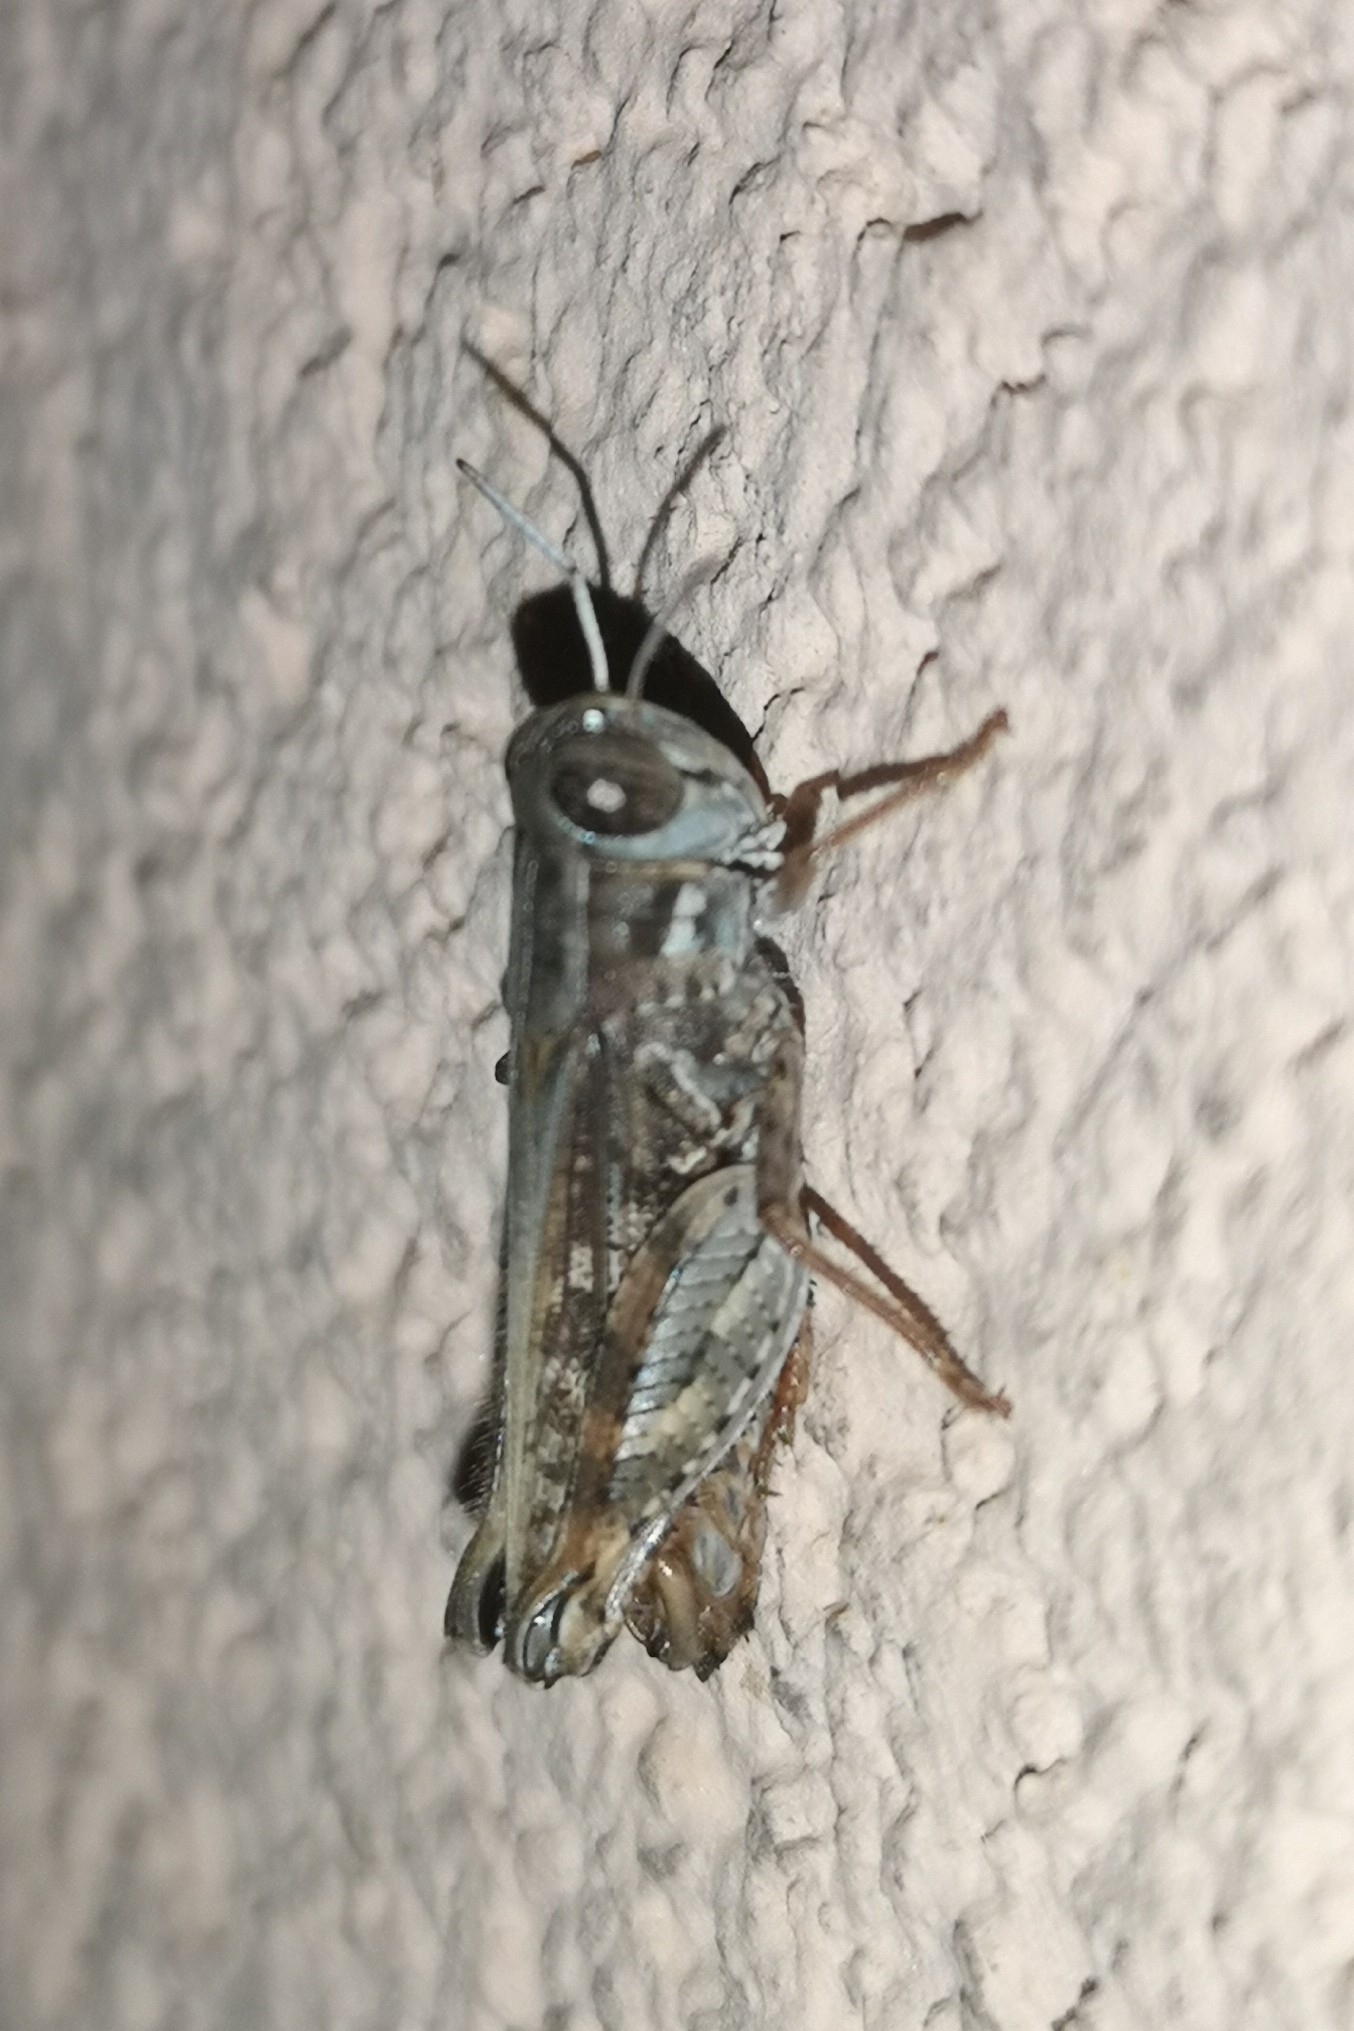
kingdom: Animalia
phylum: Arthropoda
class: Insecta
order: Orthoptera
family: Acrididae
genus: Calliptamus
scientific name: Calliptamus
